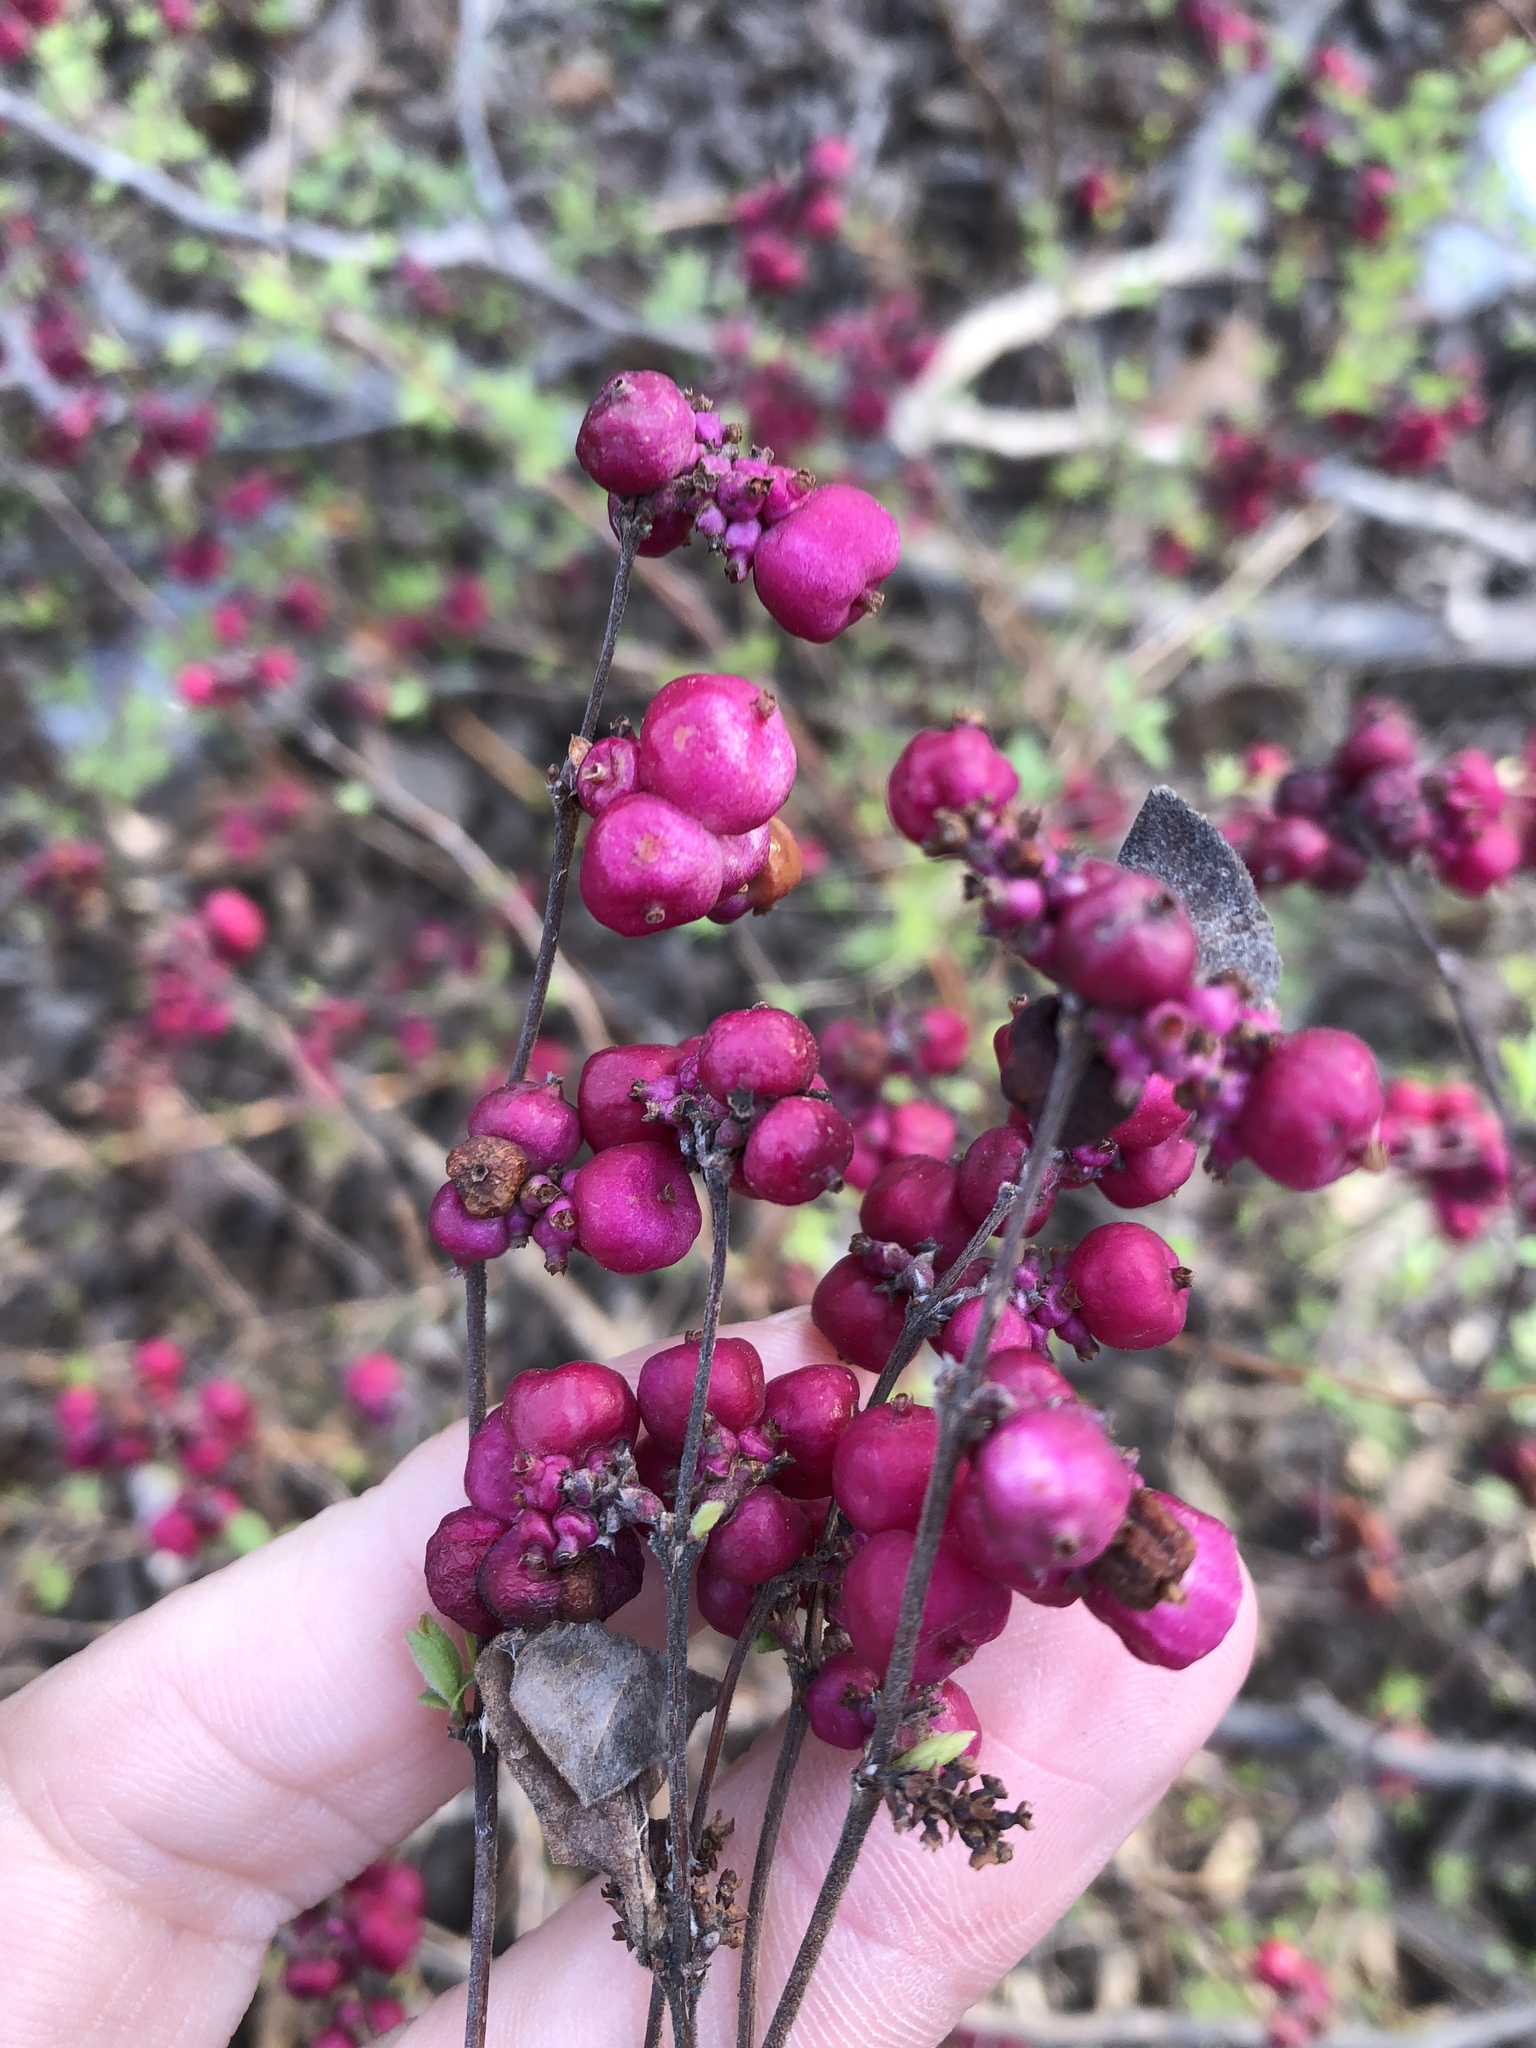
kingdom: Plantae
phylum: Tracheophyta
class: Magnoliopsida
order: Dipsacales
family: Caprifoliaceae
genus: Symphoricarpos
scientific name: Symphoricarpos orbiculatus
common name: Coralberry
